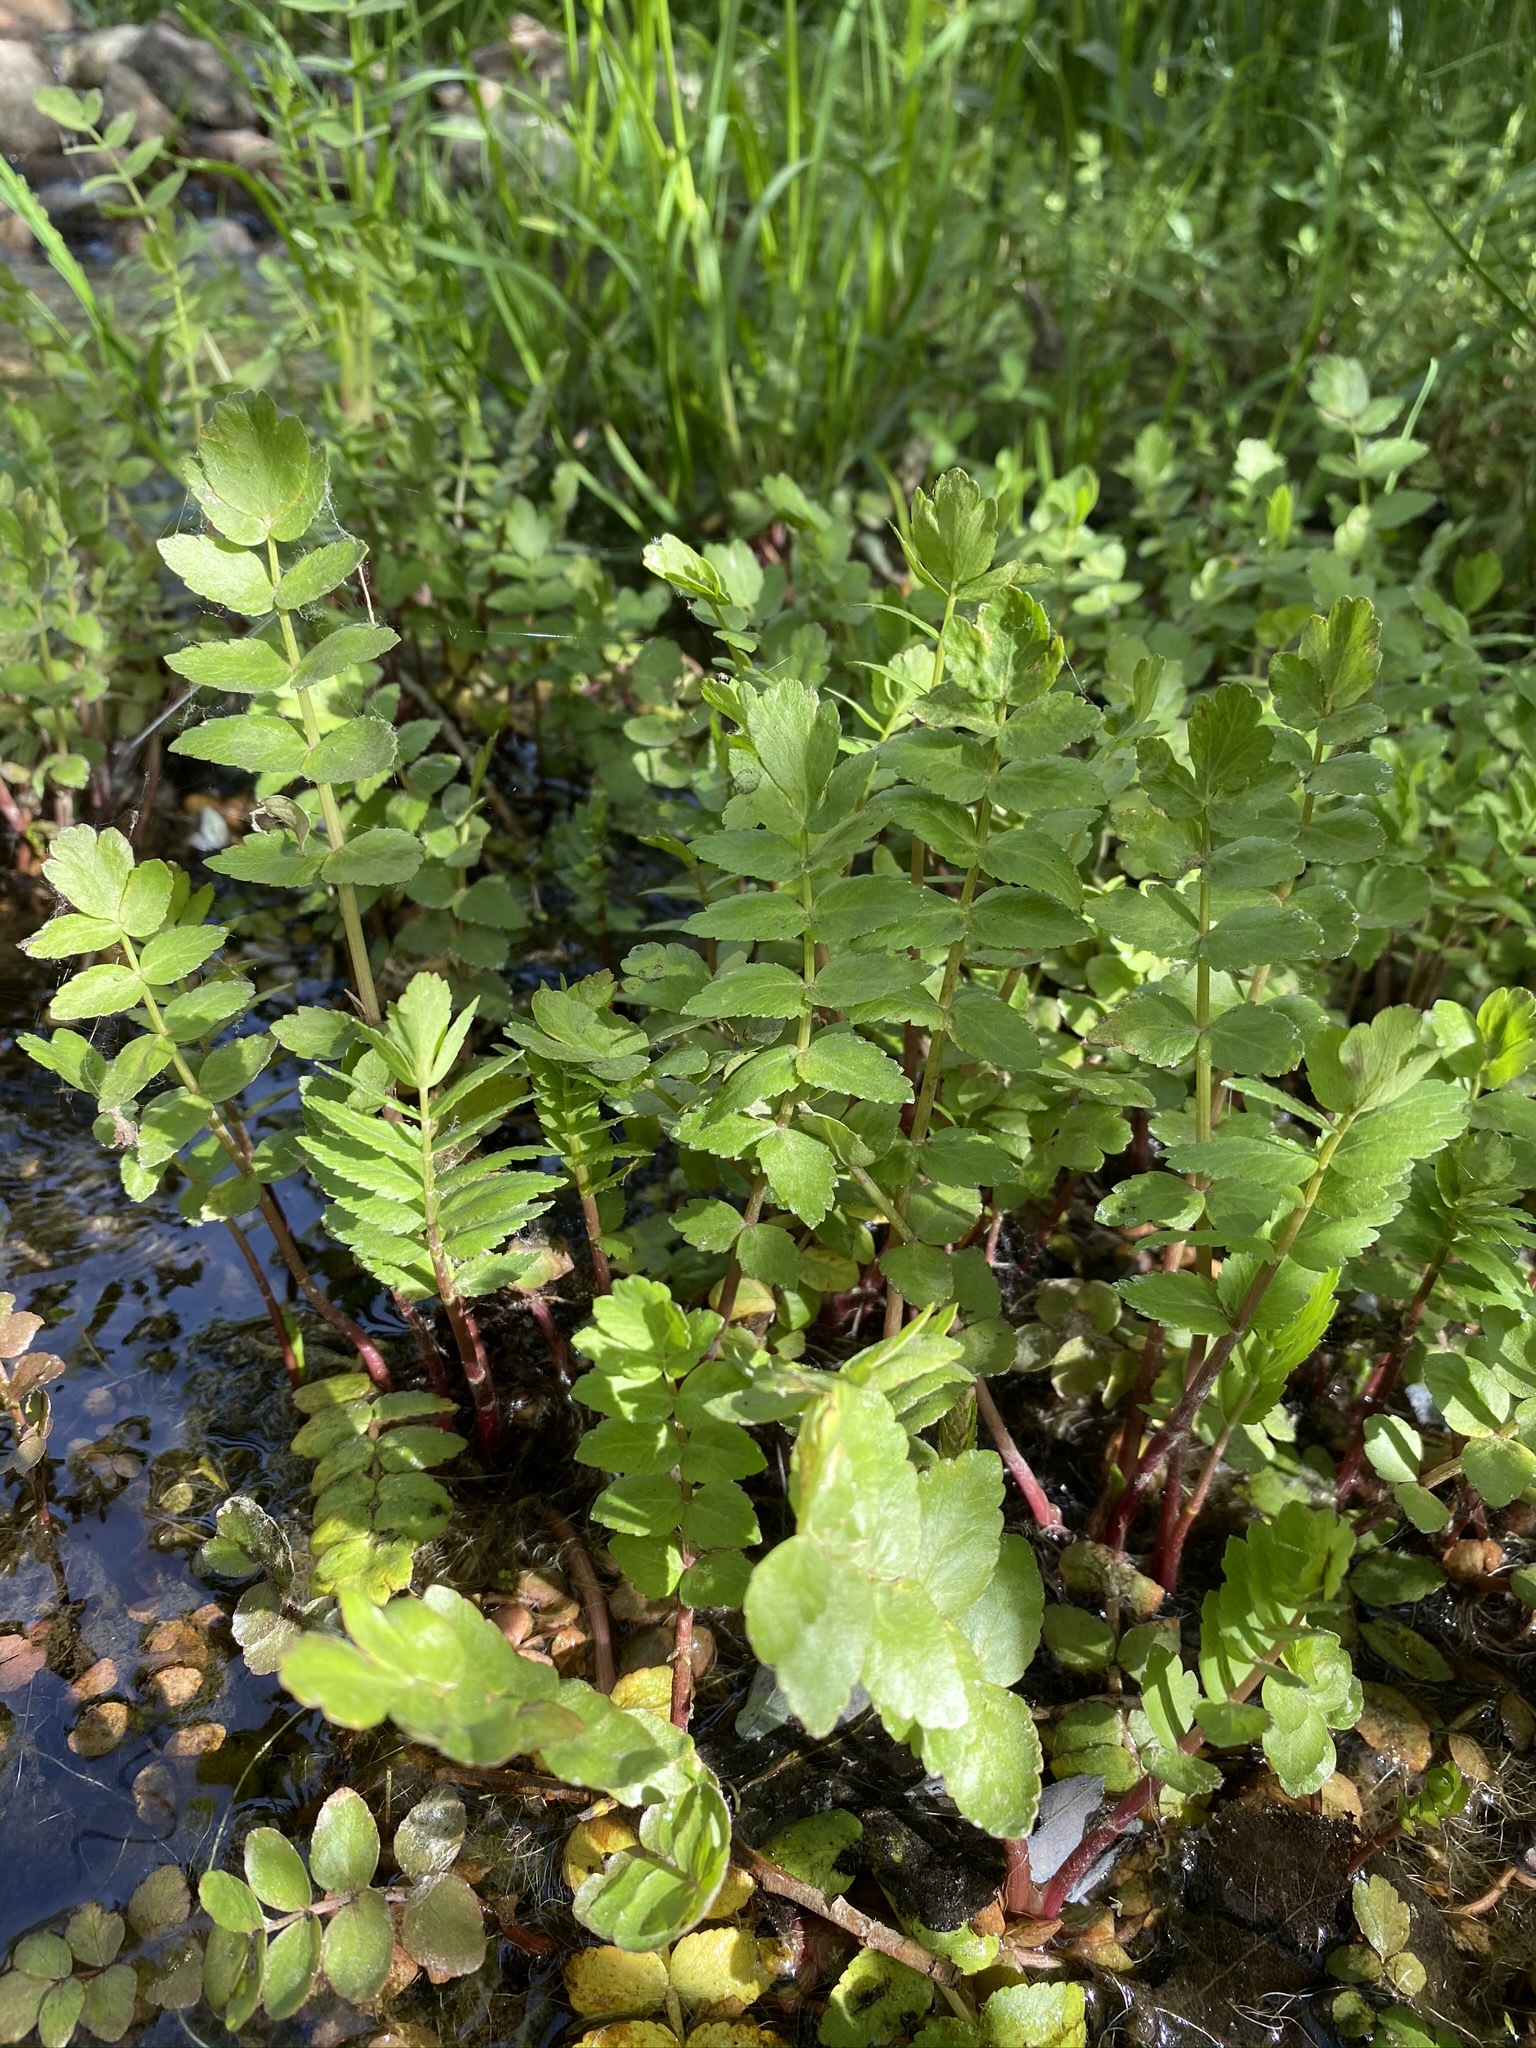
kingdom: Plantae
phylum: Tracheophyta
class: Magnoliopsida
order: Apiales
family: Apiaceae
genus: Berula
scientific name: Berula erecta
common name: Lesser water-parsnip
